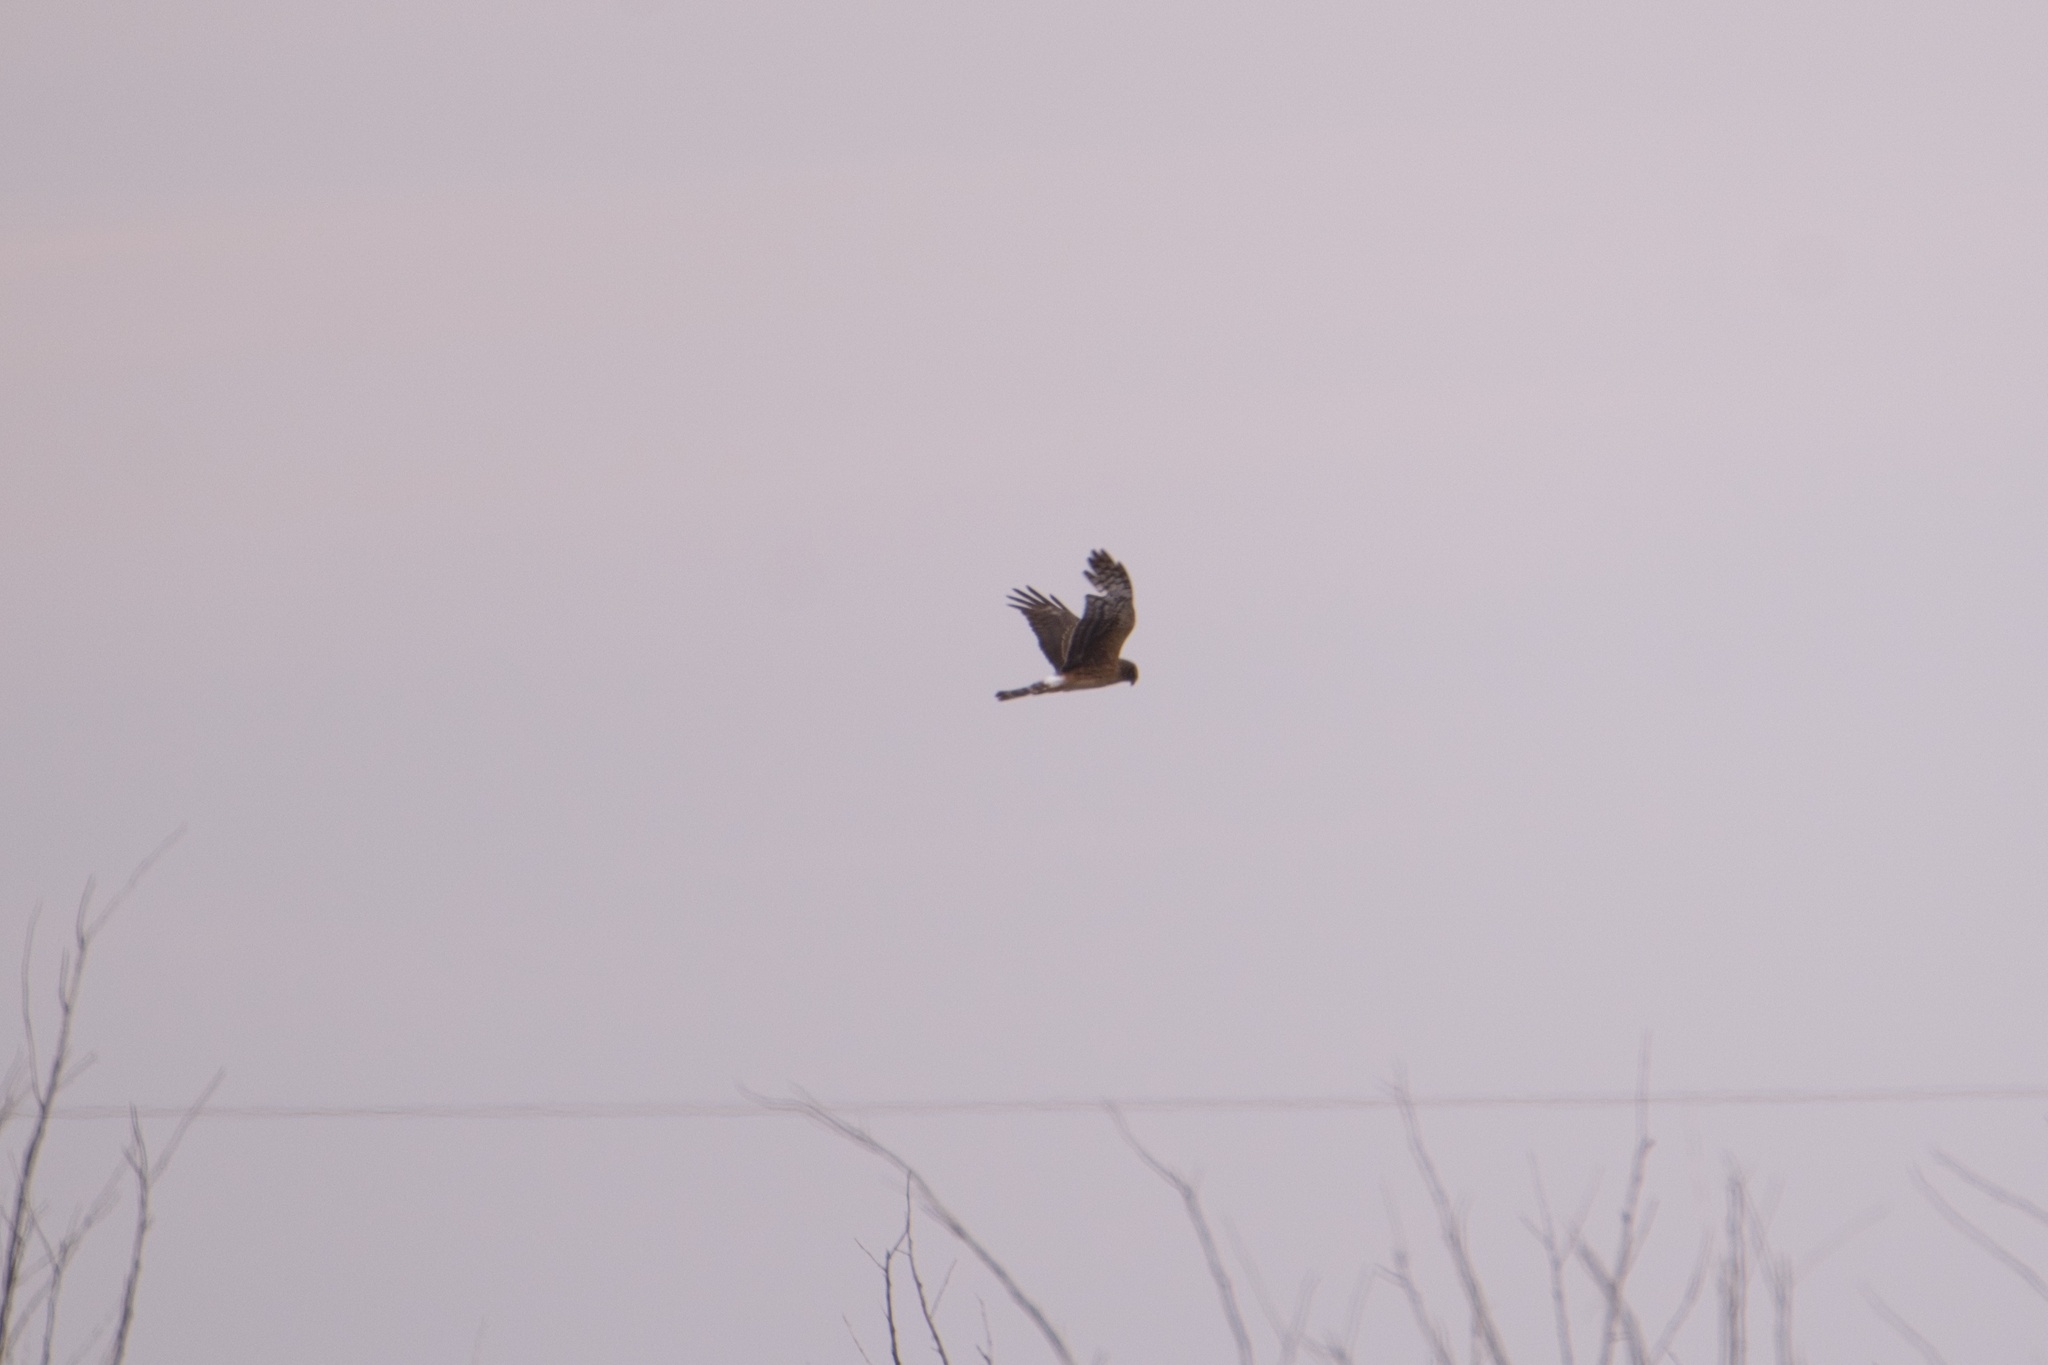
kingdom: Animalia
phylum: Chordata
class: Aves
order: Accipitriformes
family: Accipitridae
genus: Circus
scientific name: Circus cyaneus
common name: Hen harrier
